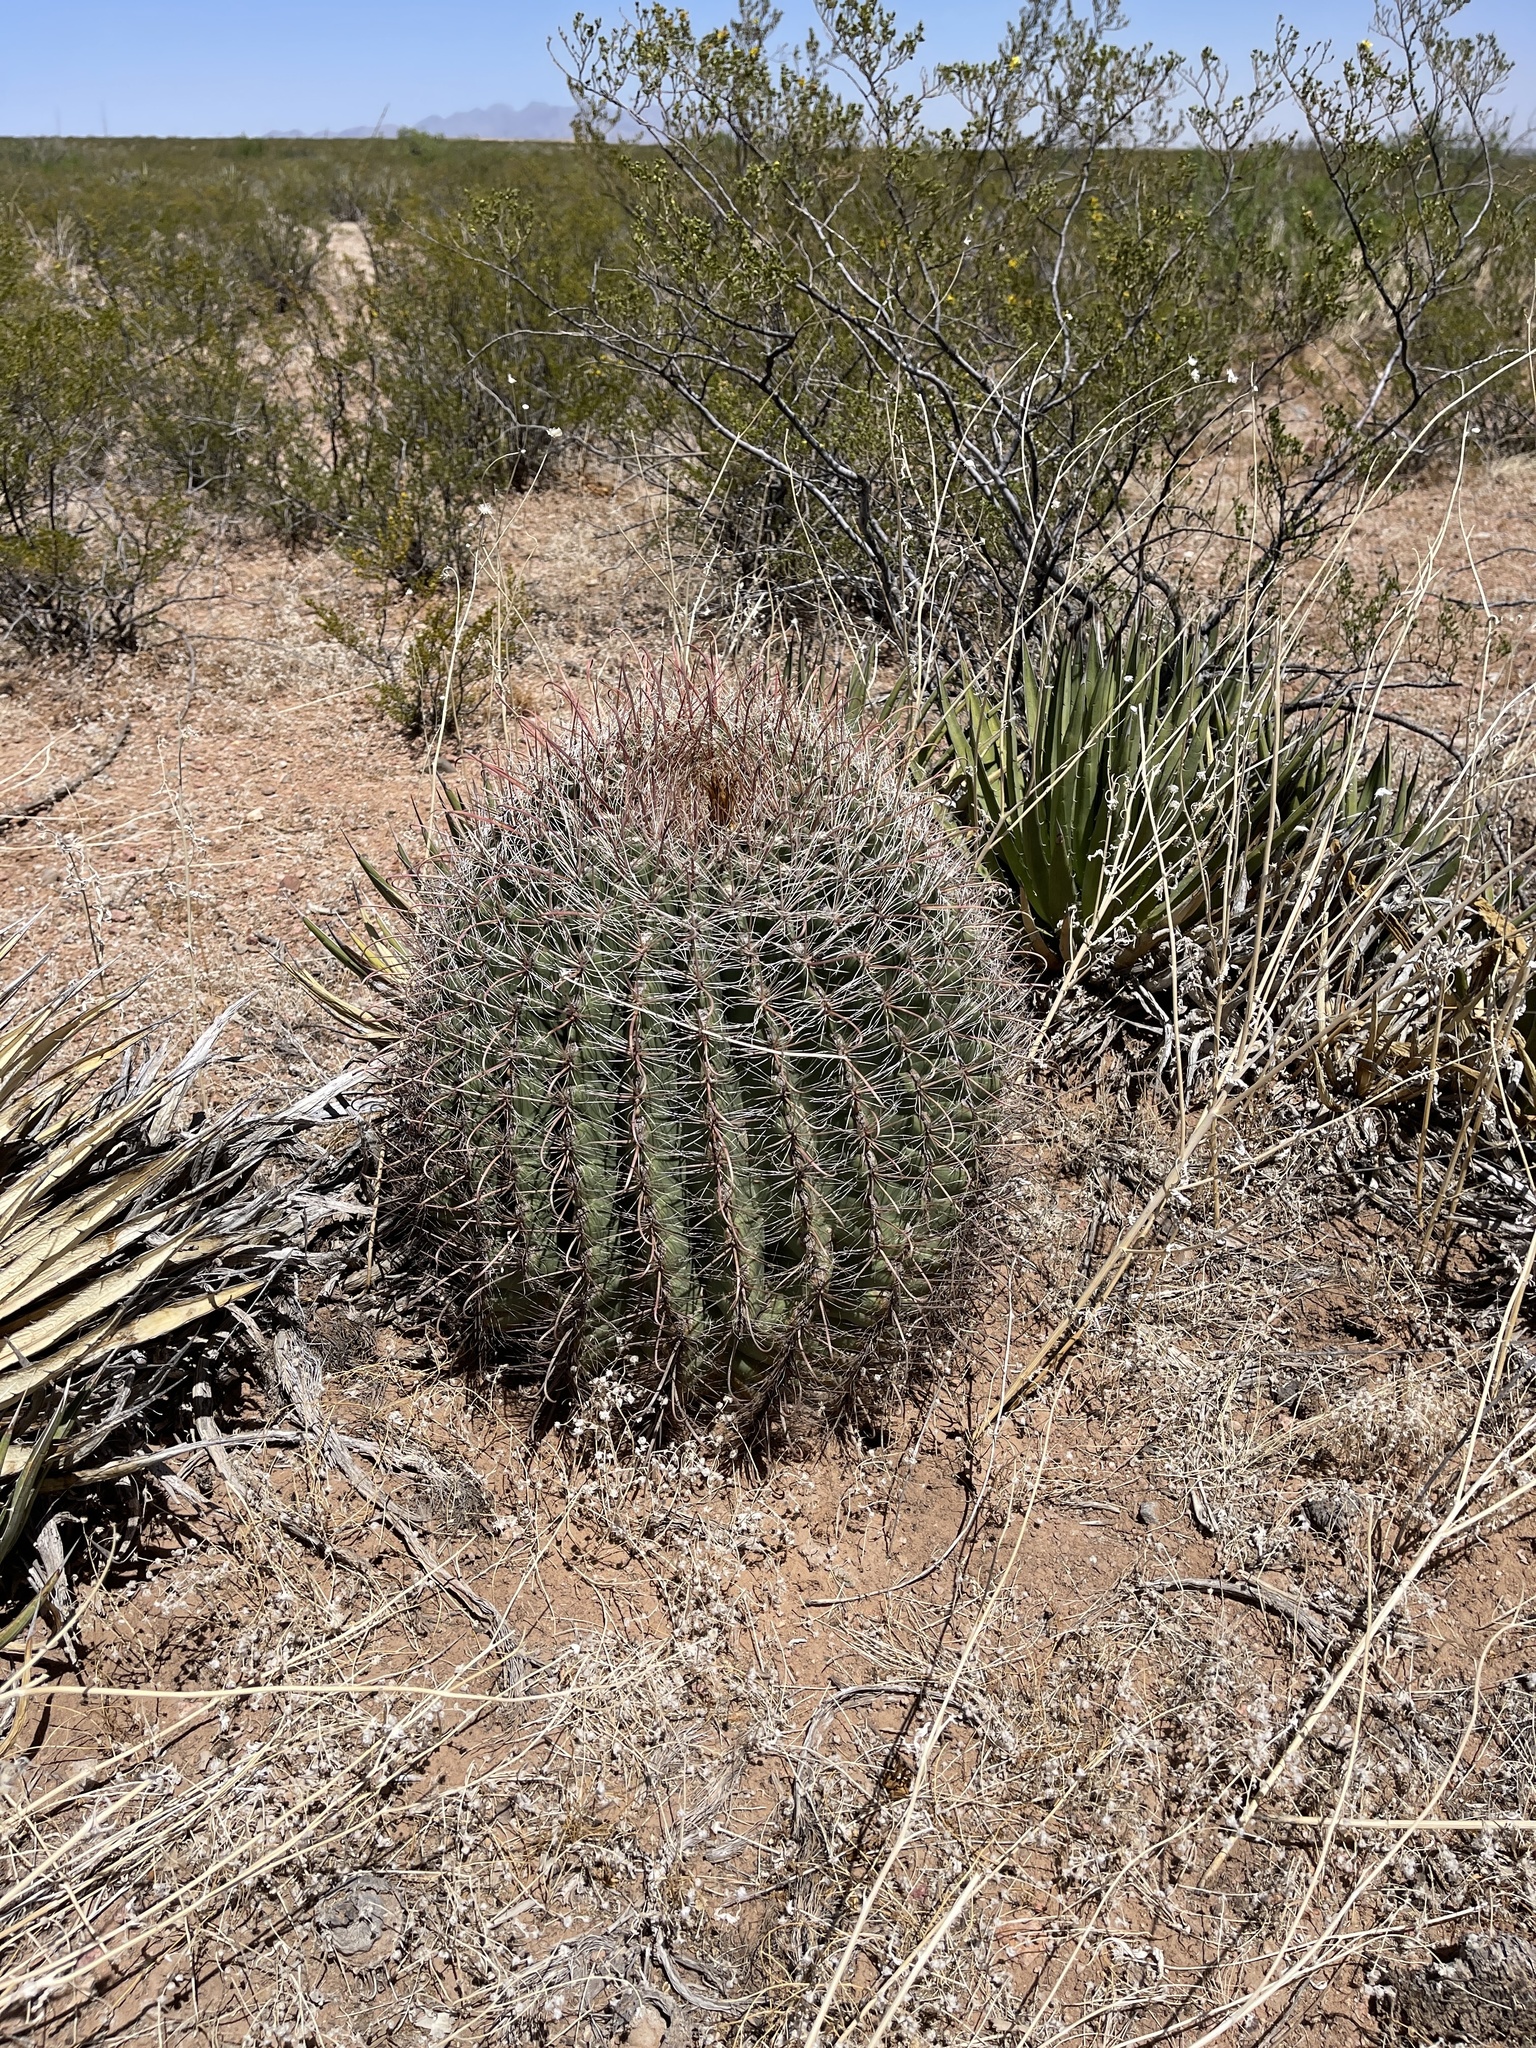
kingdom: Plantae
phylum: Tracheophyta
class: Magnoliopsida
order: Caryophyllales
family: Cactaceae
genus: Ferocactus
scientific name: Ferocactus wislizeni
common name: Candy barrel cactus
